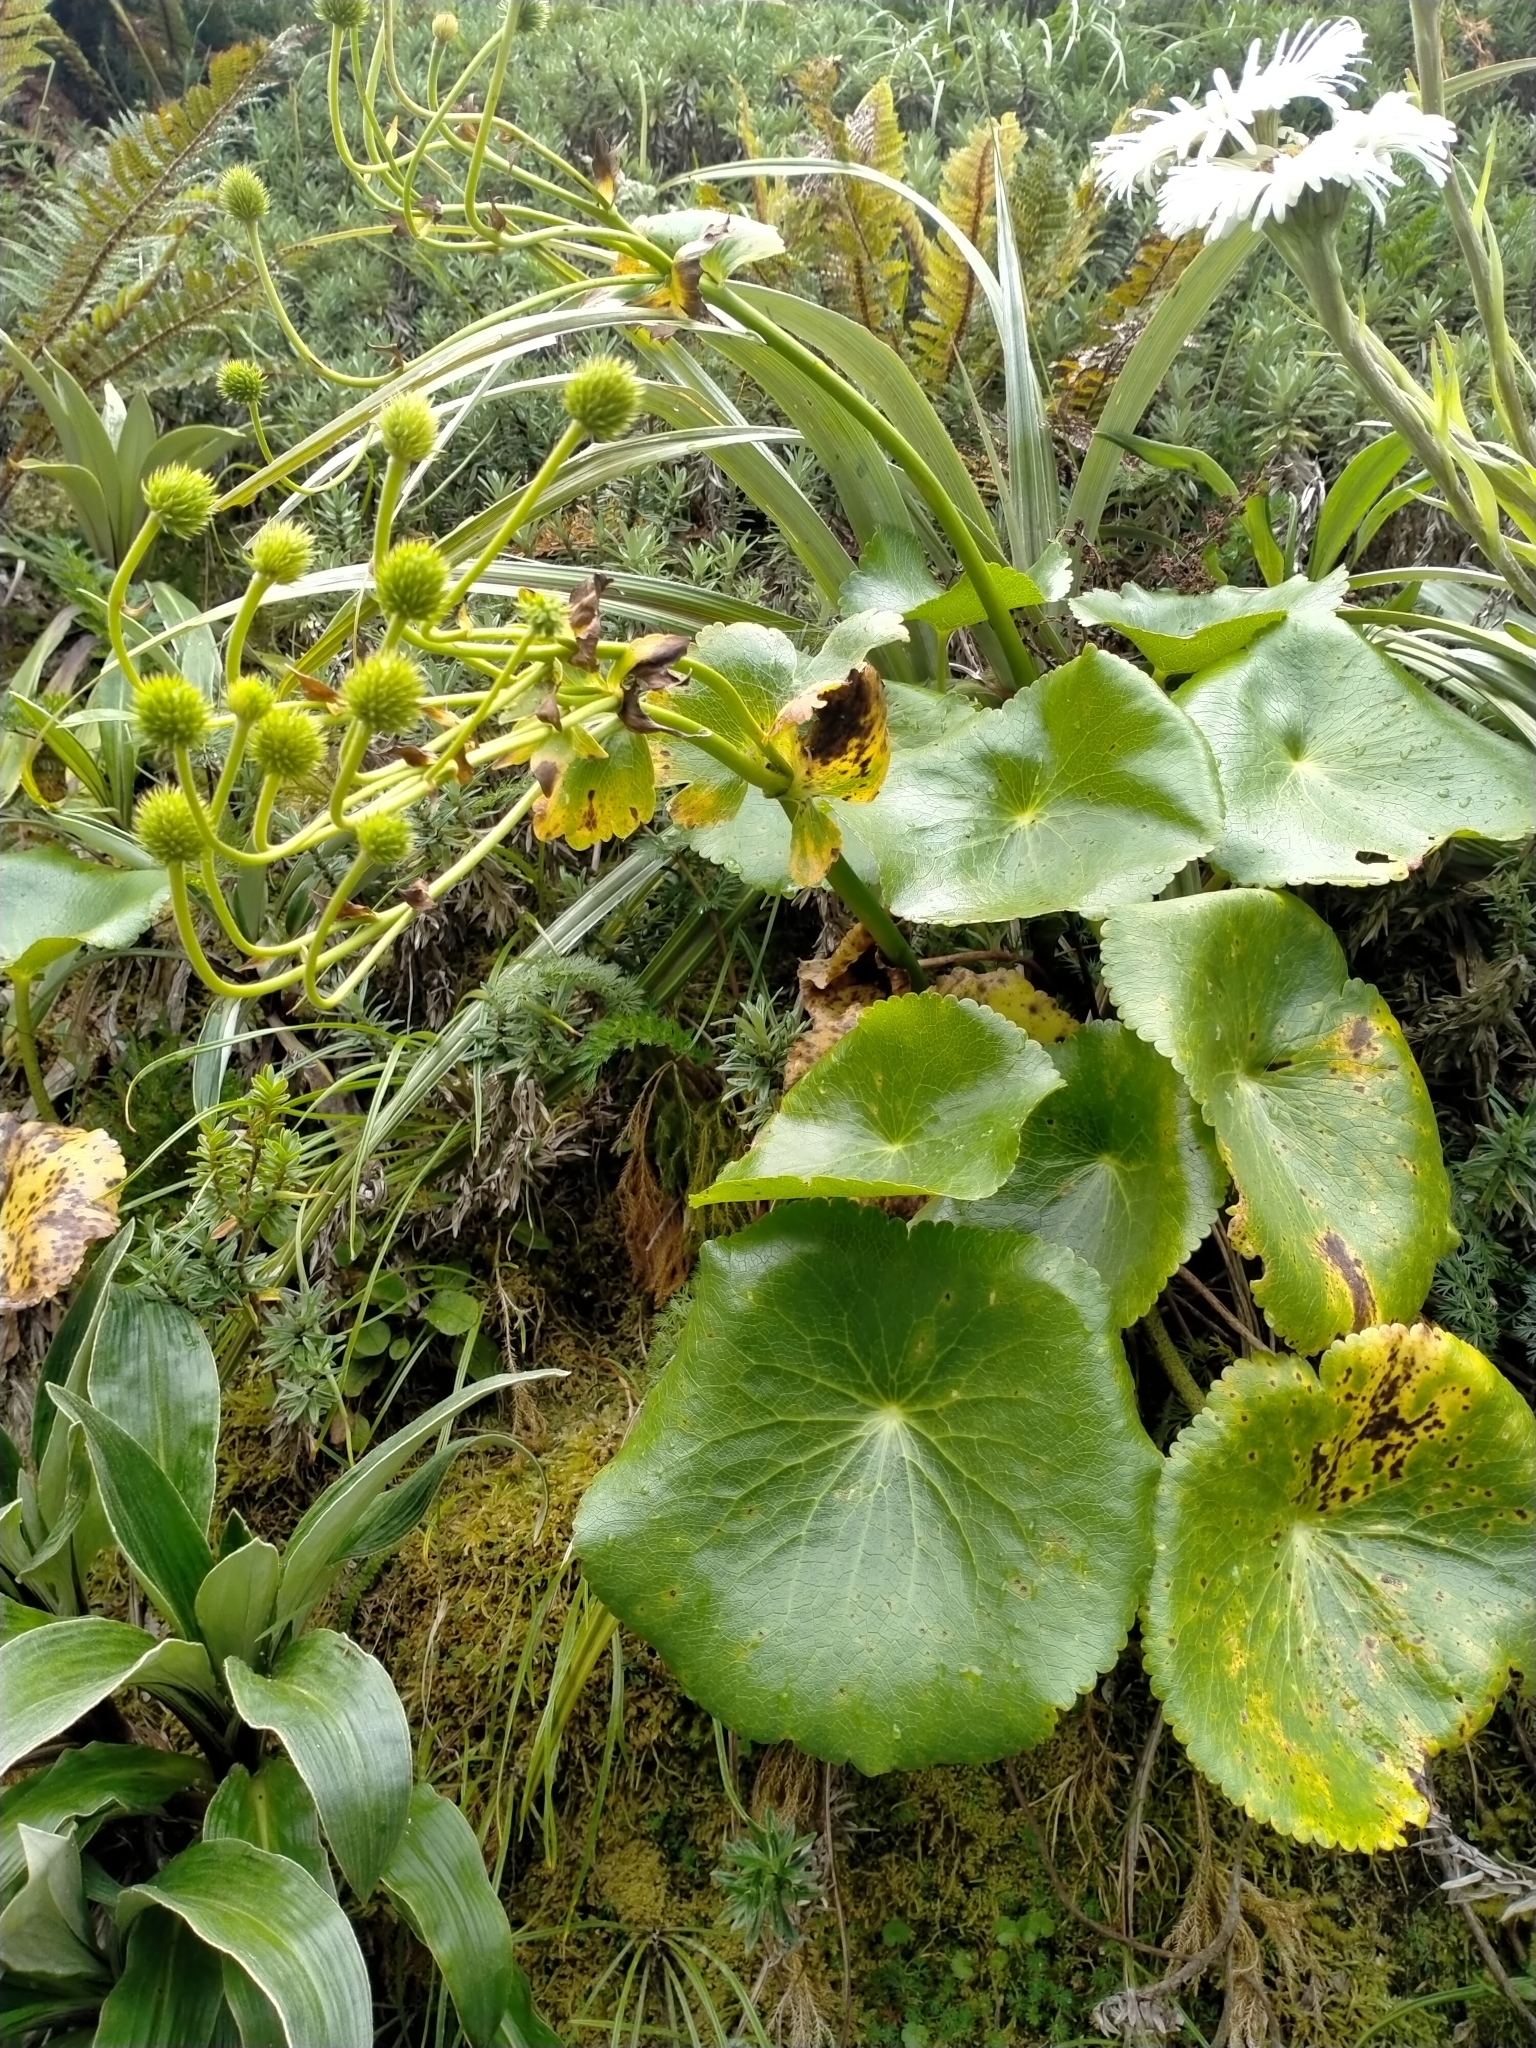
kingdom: Plantae
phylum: Tracheophyta
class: Magnoliopsida
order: Ranunculales
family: Ranunculaceae
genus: Ranunculus
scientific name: Ranunculus lyallii
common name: Mountain-lily
